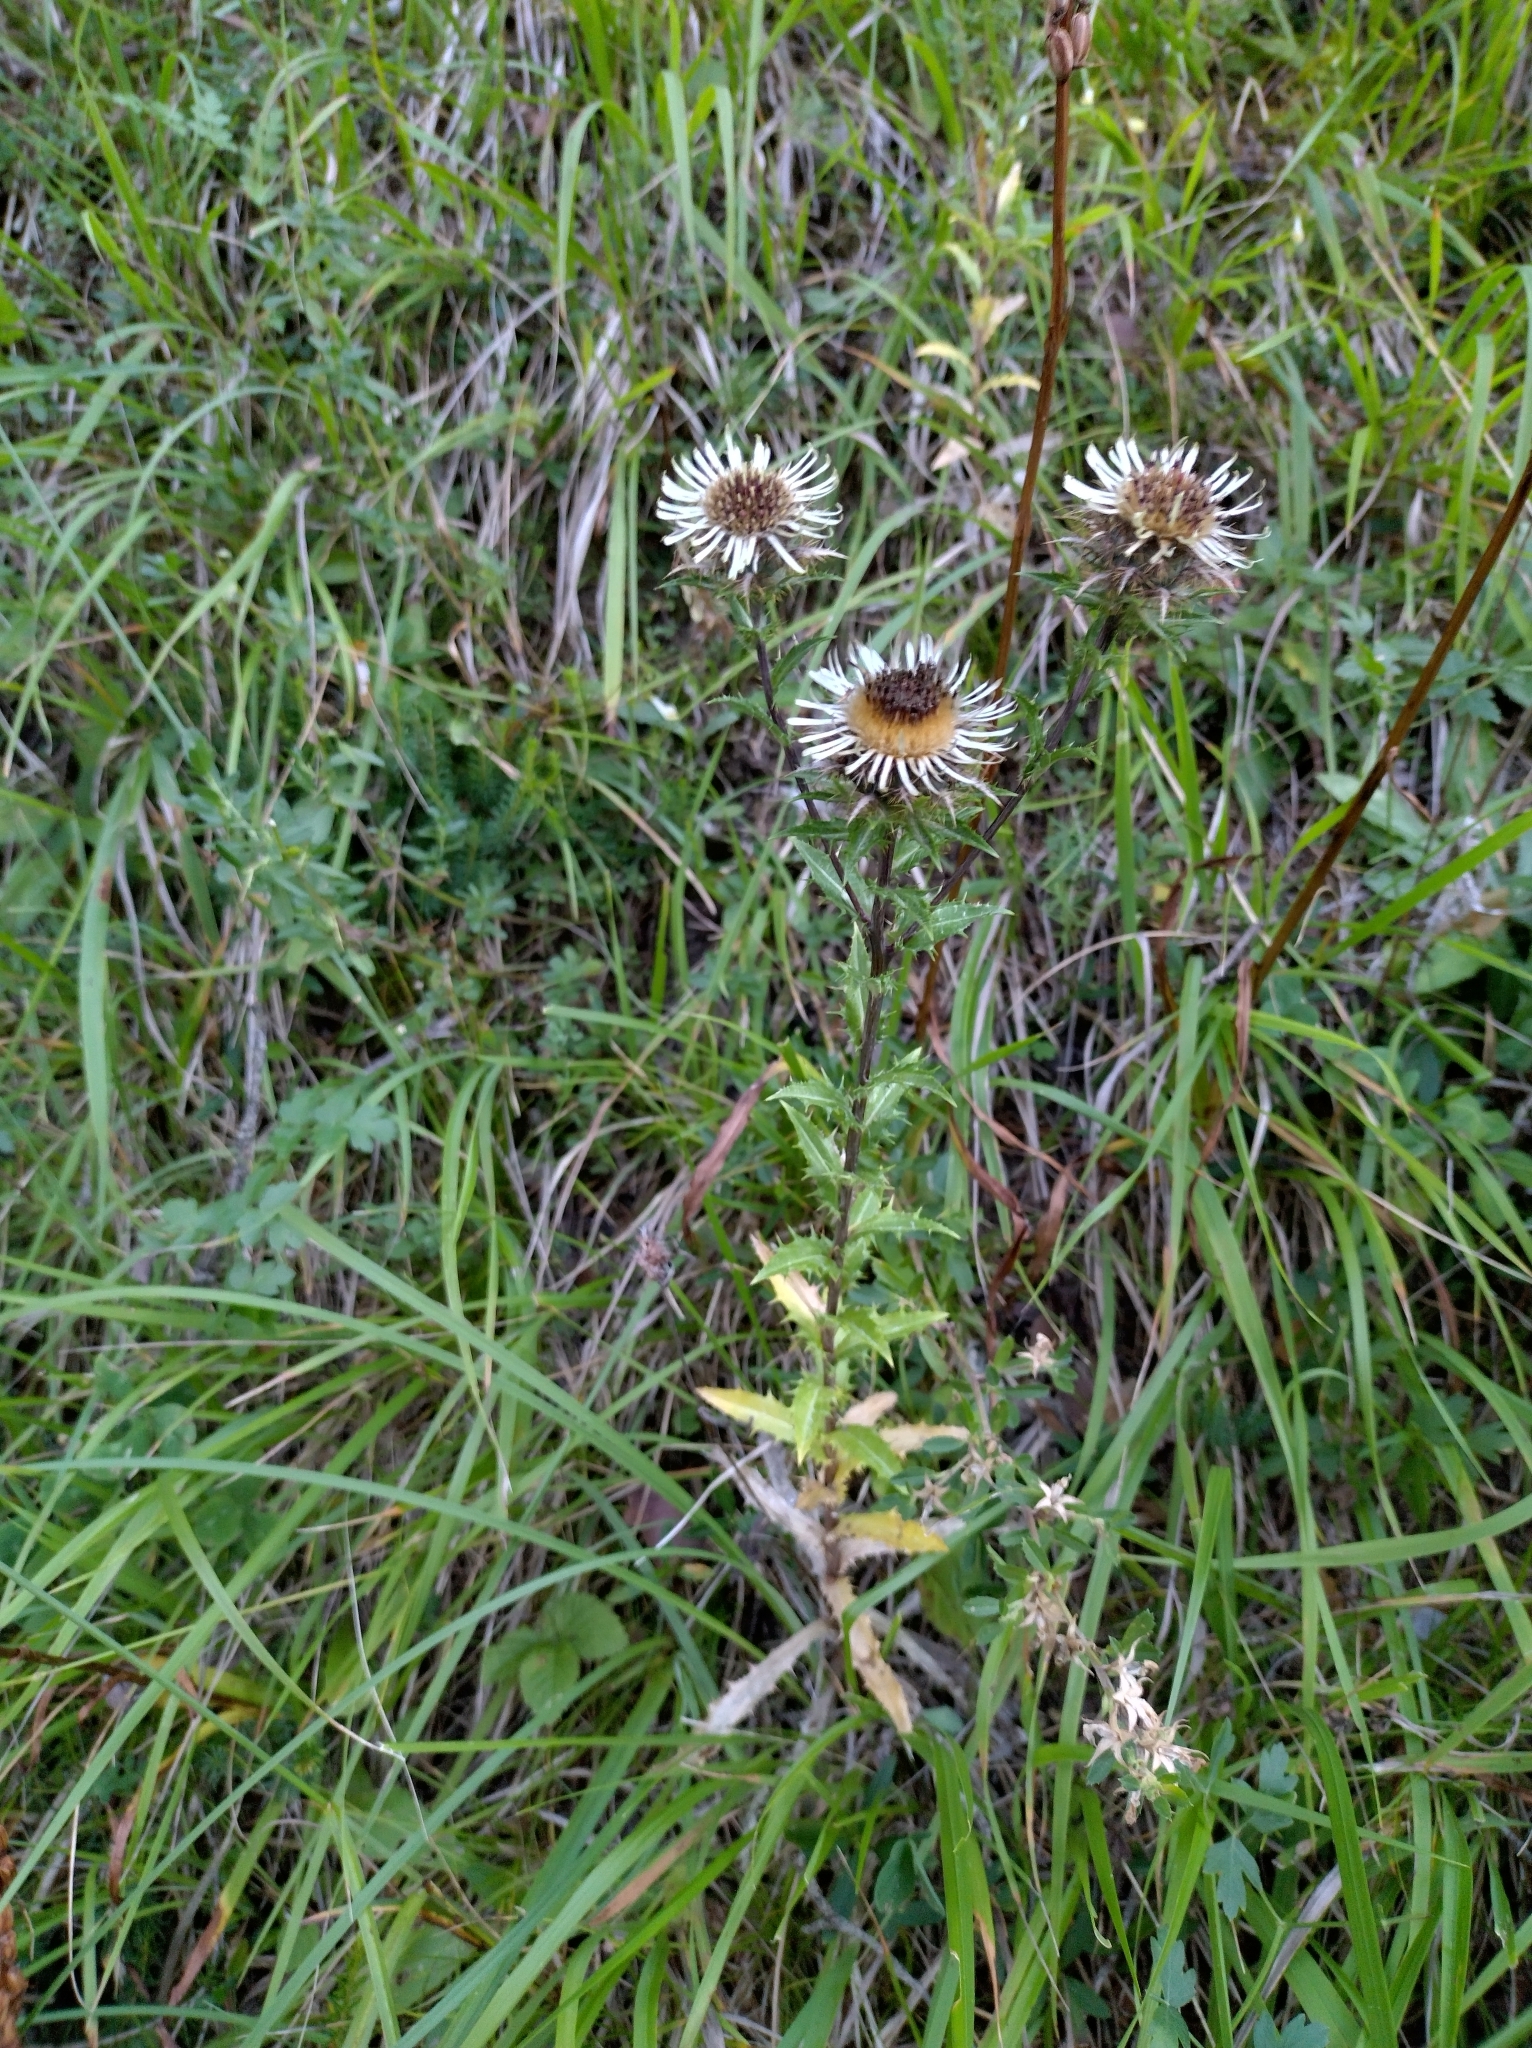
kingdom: Plantae
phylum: Tracheophyta
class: Magnoliopsida
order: Asterales
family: Asteraceae
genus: Carlina
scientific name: Carlina vulgaris
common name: Carline thistle
